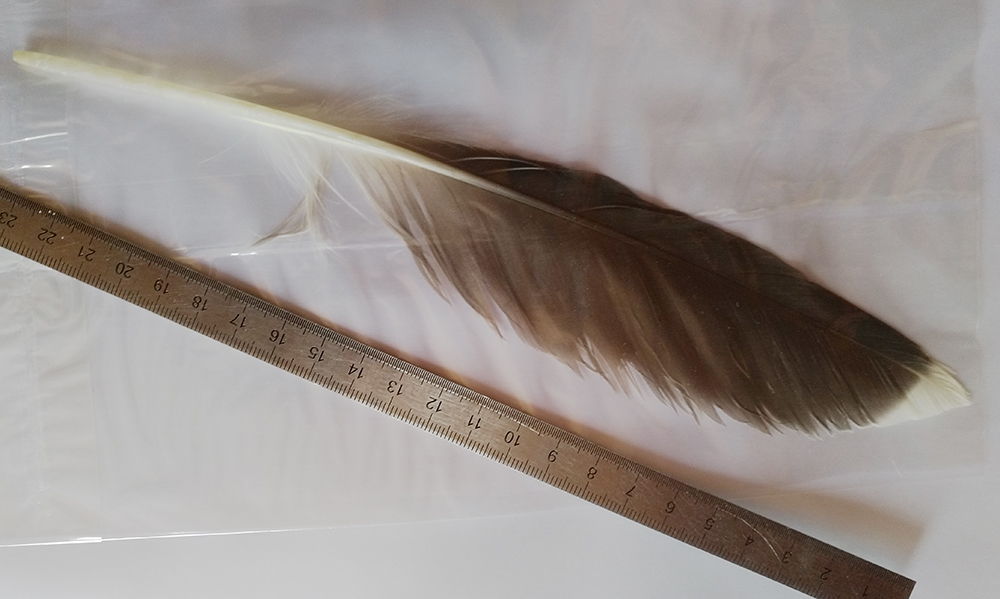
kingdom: Animalia
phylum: Chordata
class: Aves
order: Charadriiformes
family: Laridae
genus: Larus
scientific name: Larus marinus
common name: Great black-backed gull
